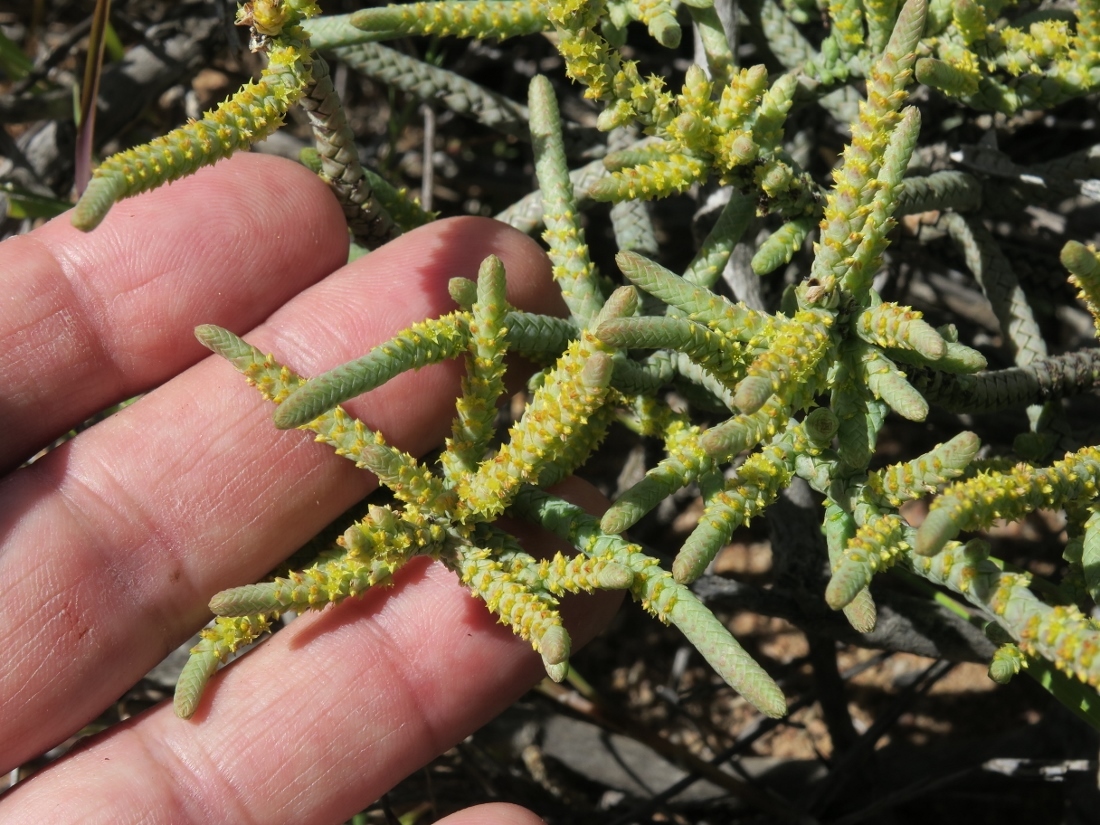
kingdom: Plantae
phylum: Tracheophyta
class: Magnoliopsida
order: Saxifragales
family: Crassulaceae
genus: Crassula
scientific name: Crassula muscosa
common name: Toy-cypress
